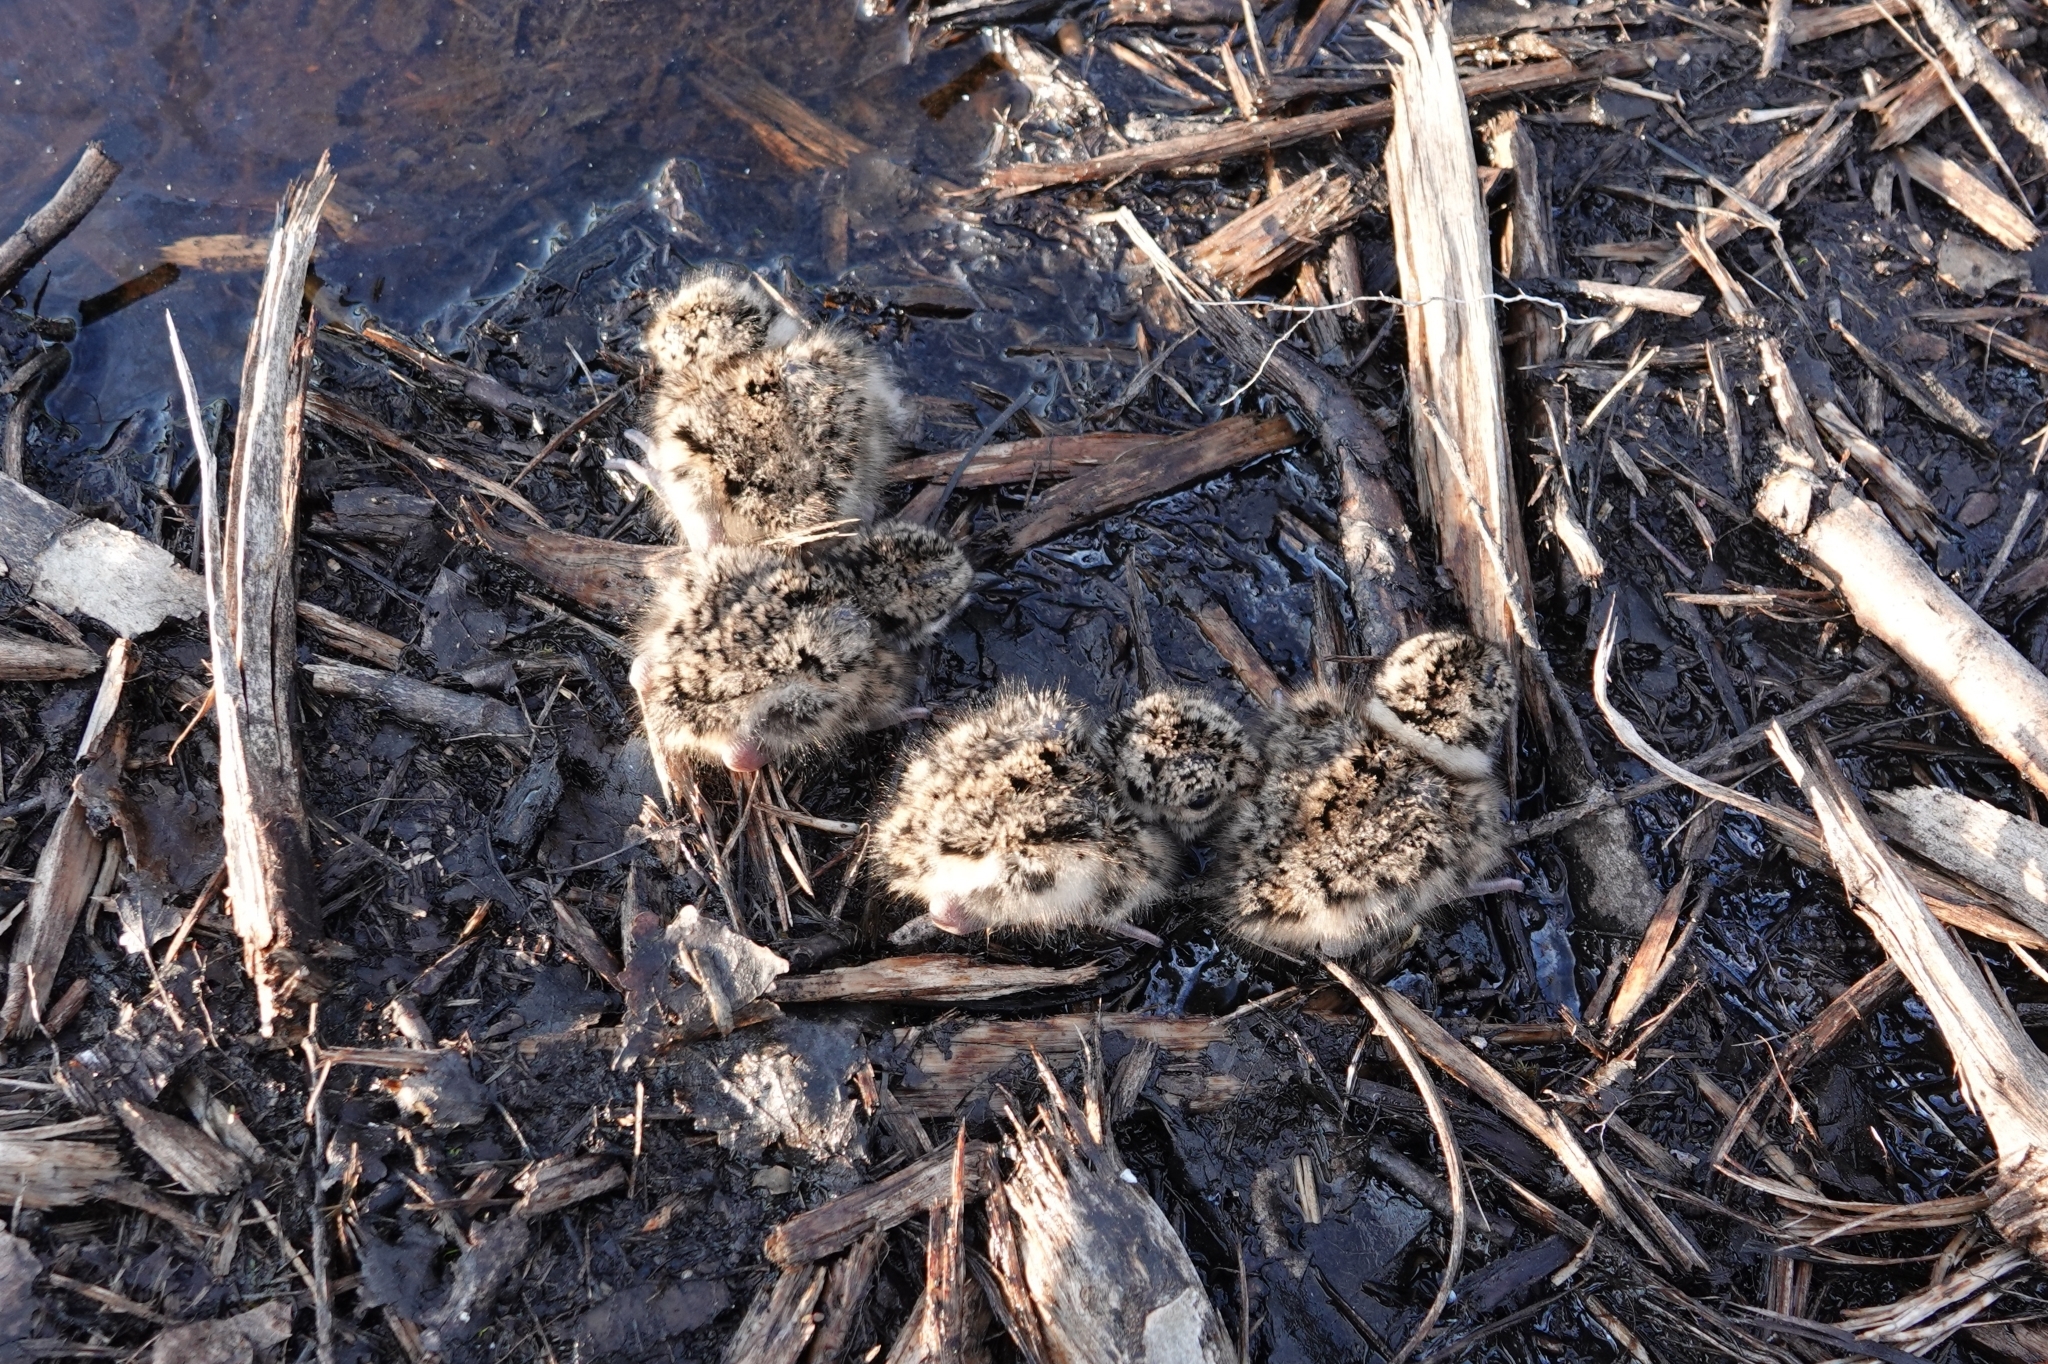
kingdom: Animalia
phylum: Chordata
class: Aves
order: Charadriiformes
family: Charadriidae
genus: Vanellus
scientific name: Vanellus vanellus
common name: Northern lapwing
